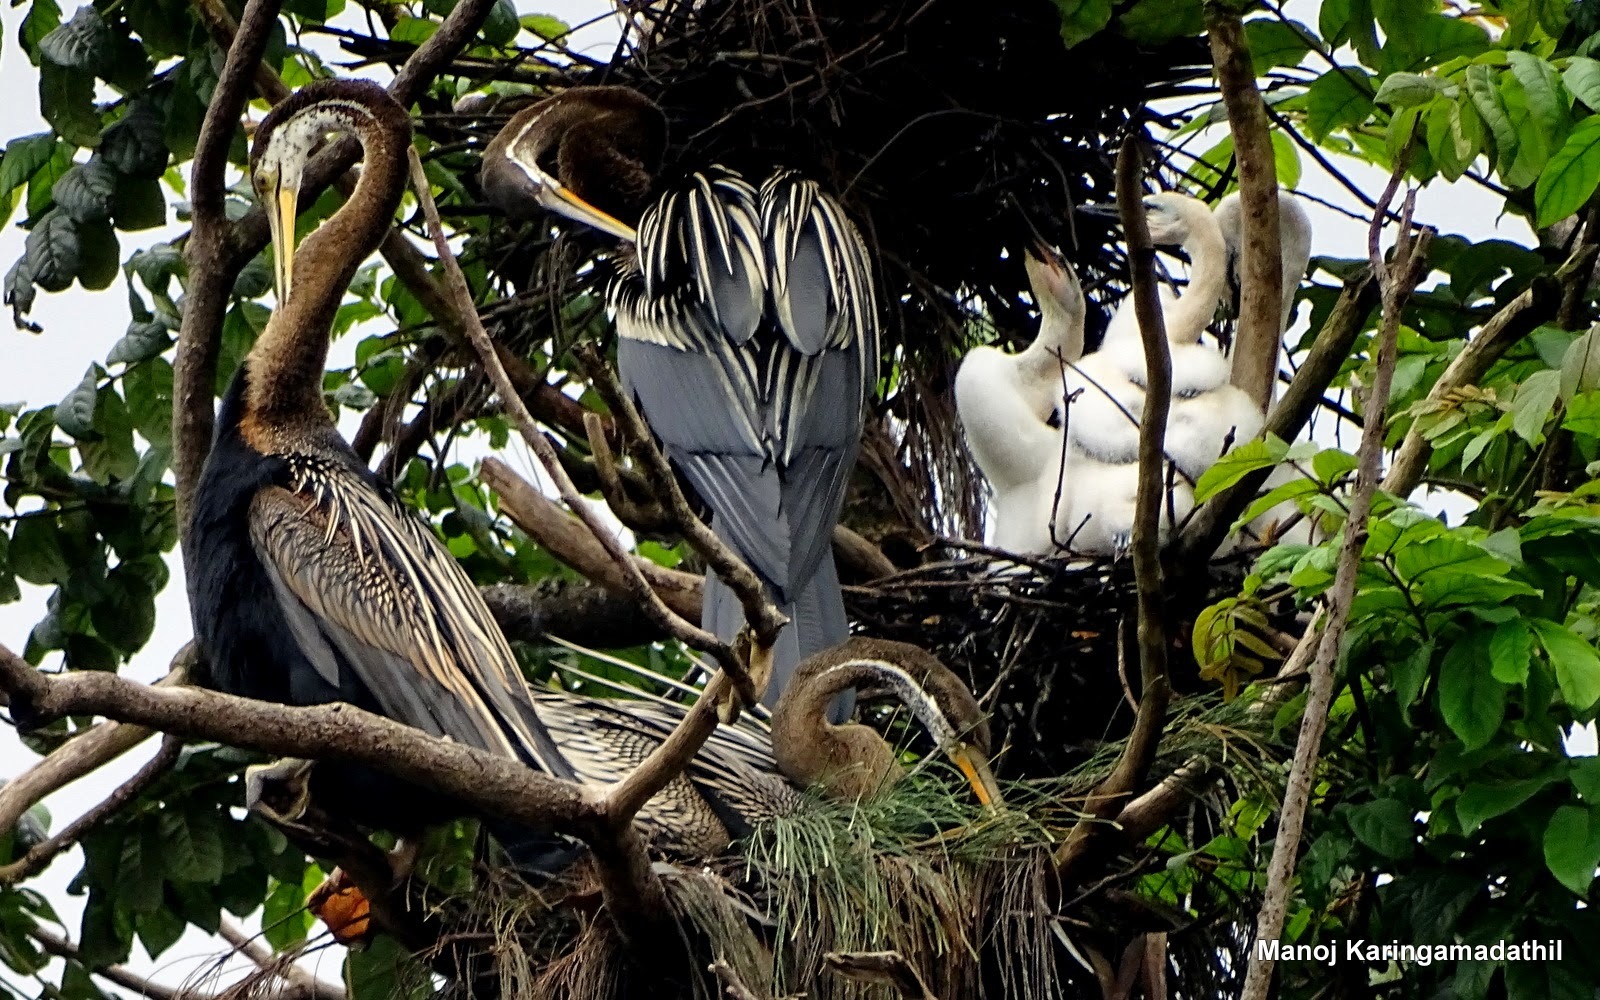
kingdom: Animalia
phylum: Chordata
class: Aves
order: Suliformes
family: Anhingidae
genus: Anhinga
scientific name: Anhinga melanogaster
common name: Oriental darter
